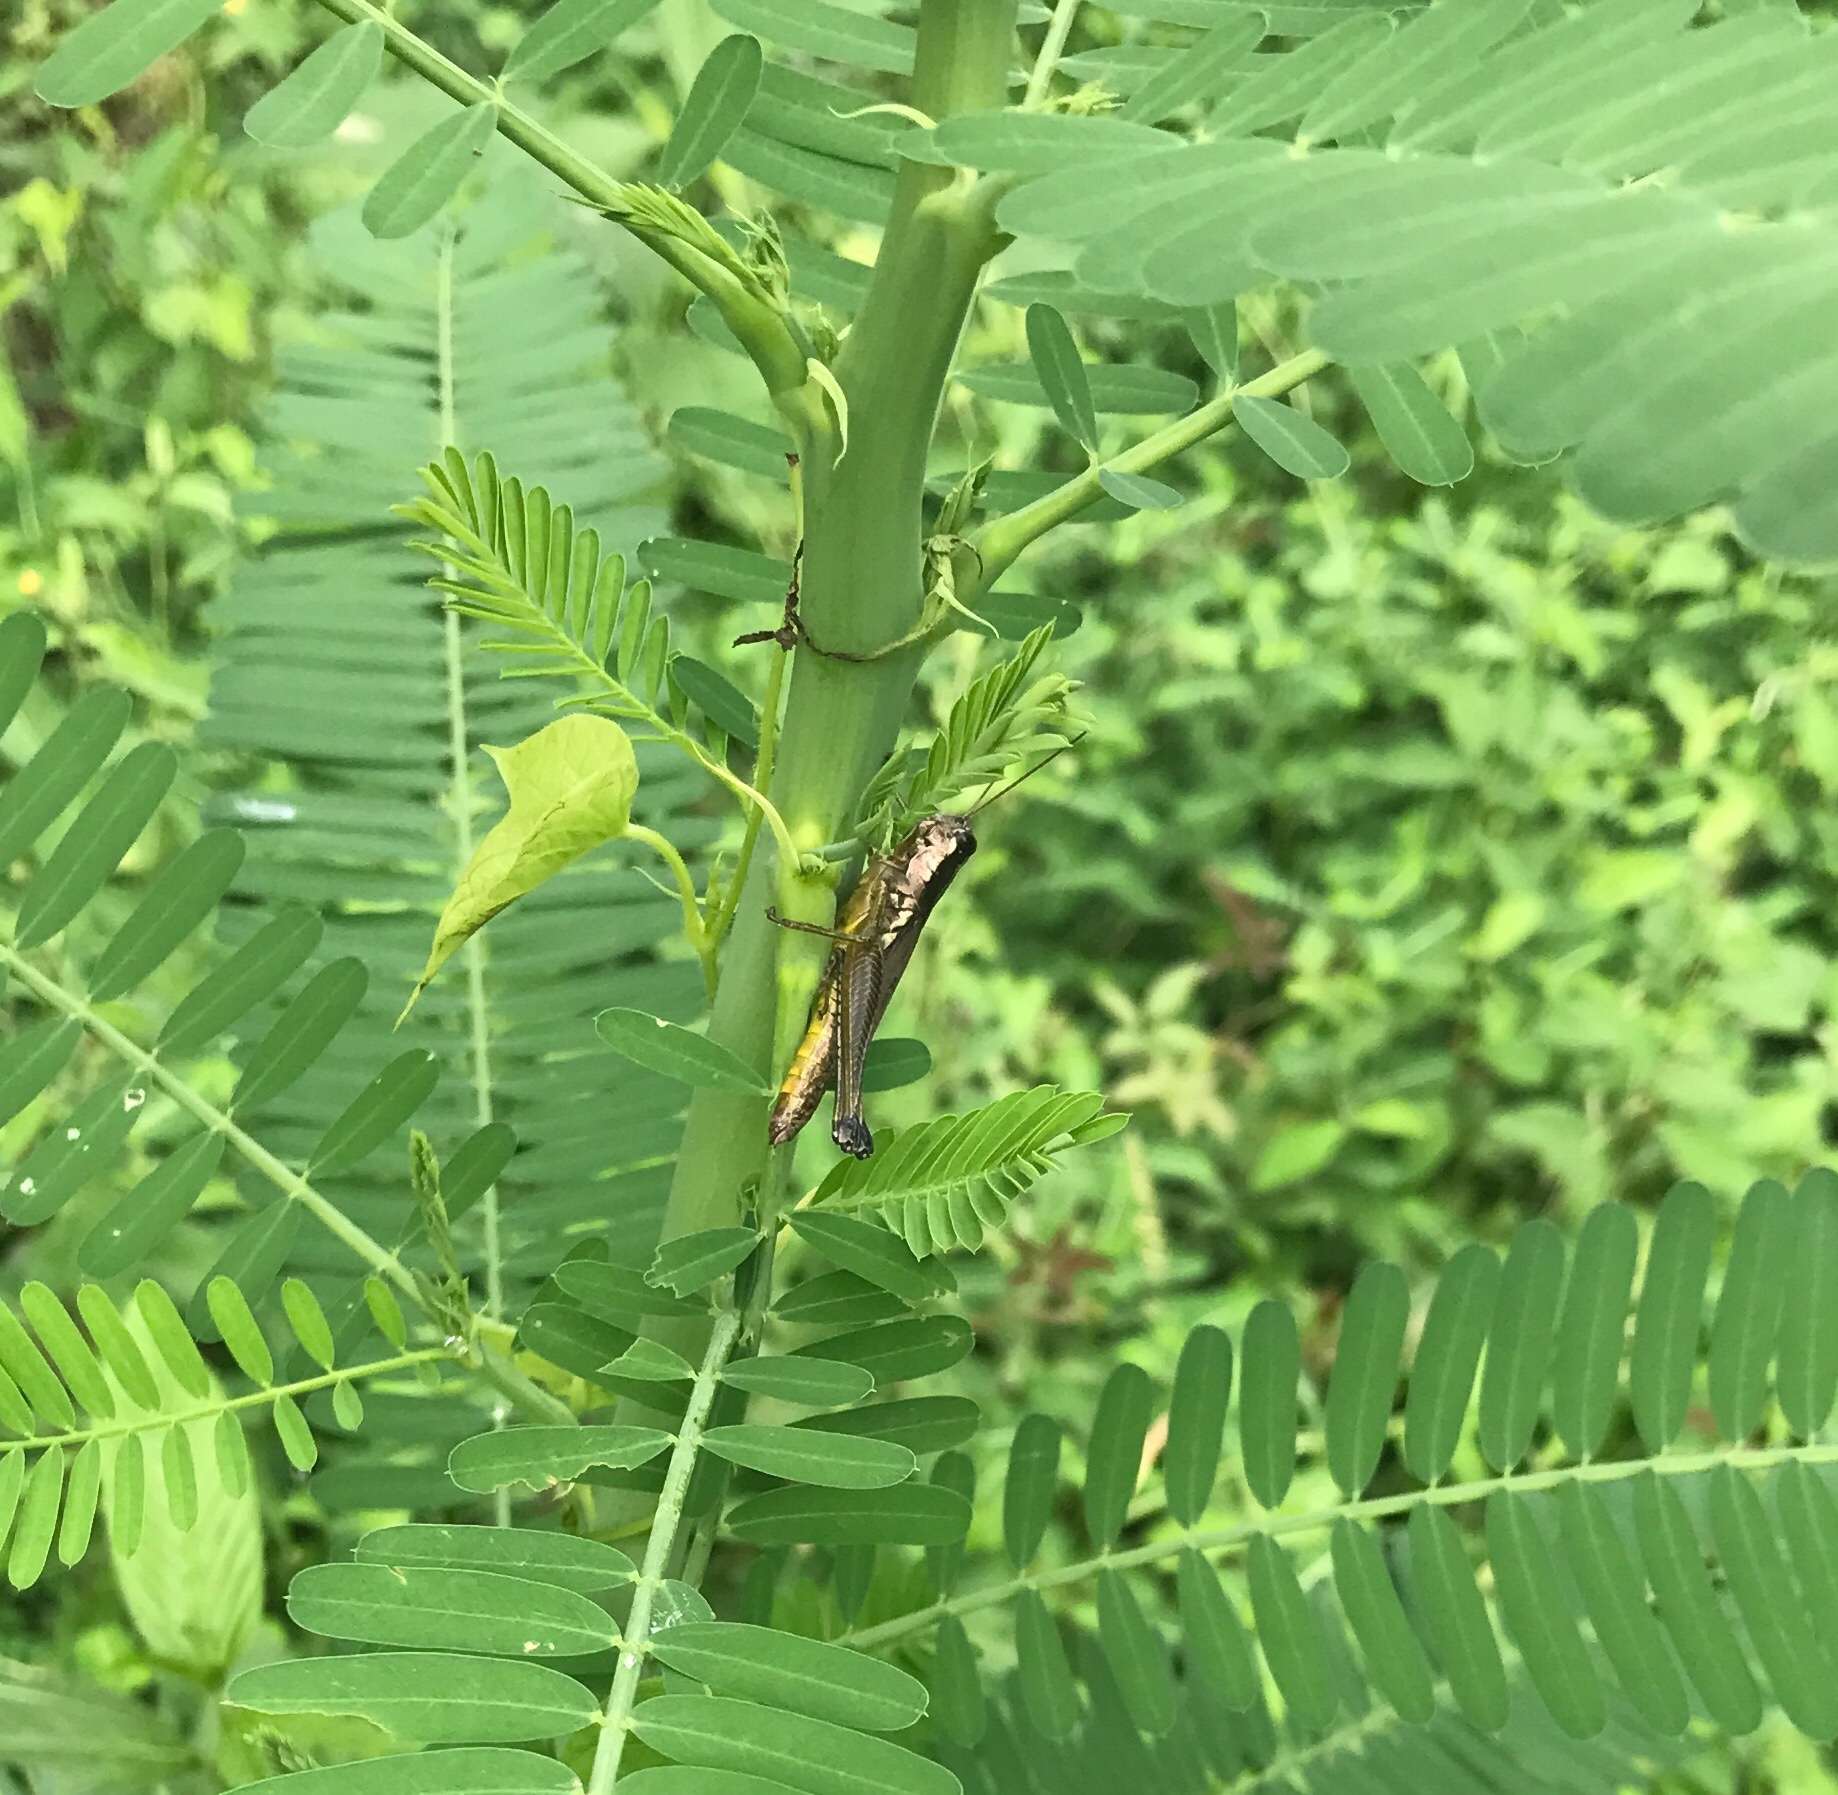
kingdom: Animalia
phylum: Arthropoda
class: Insecta
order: Orthoptera
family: Acrididae
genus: Paroxya
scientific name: Paroxya clavuligera
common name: Olive-green swamp grasshopper
